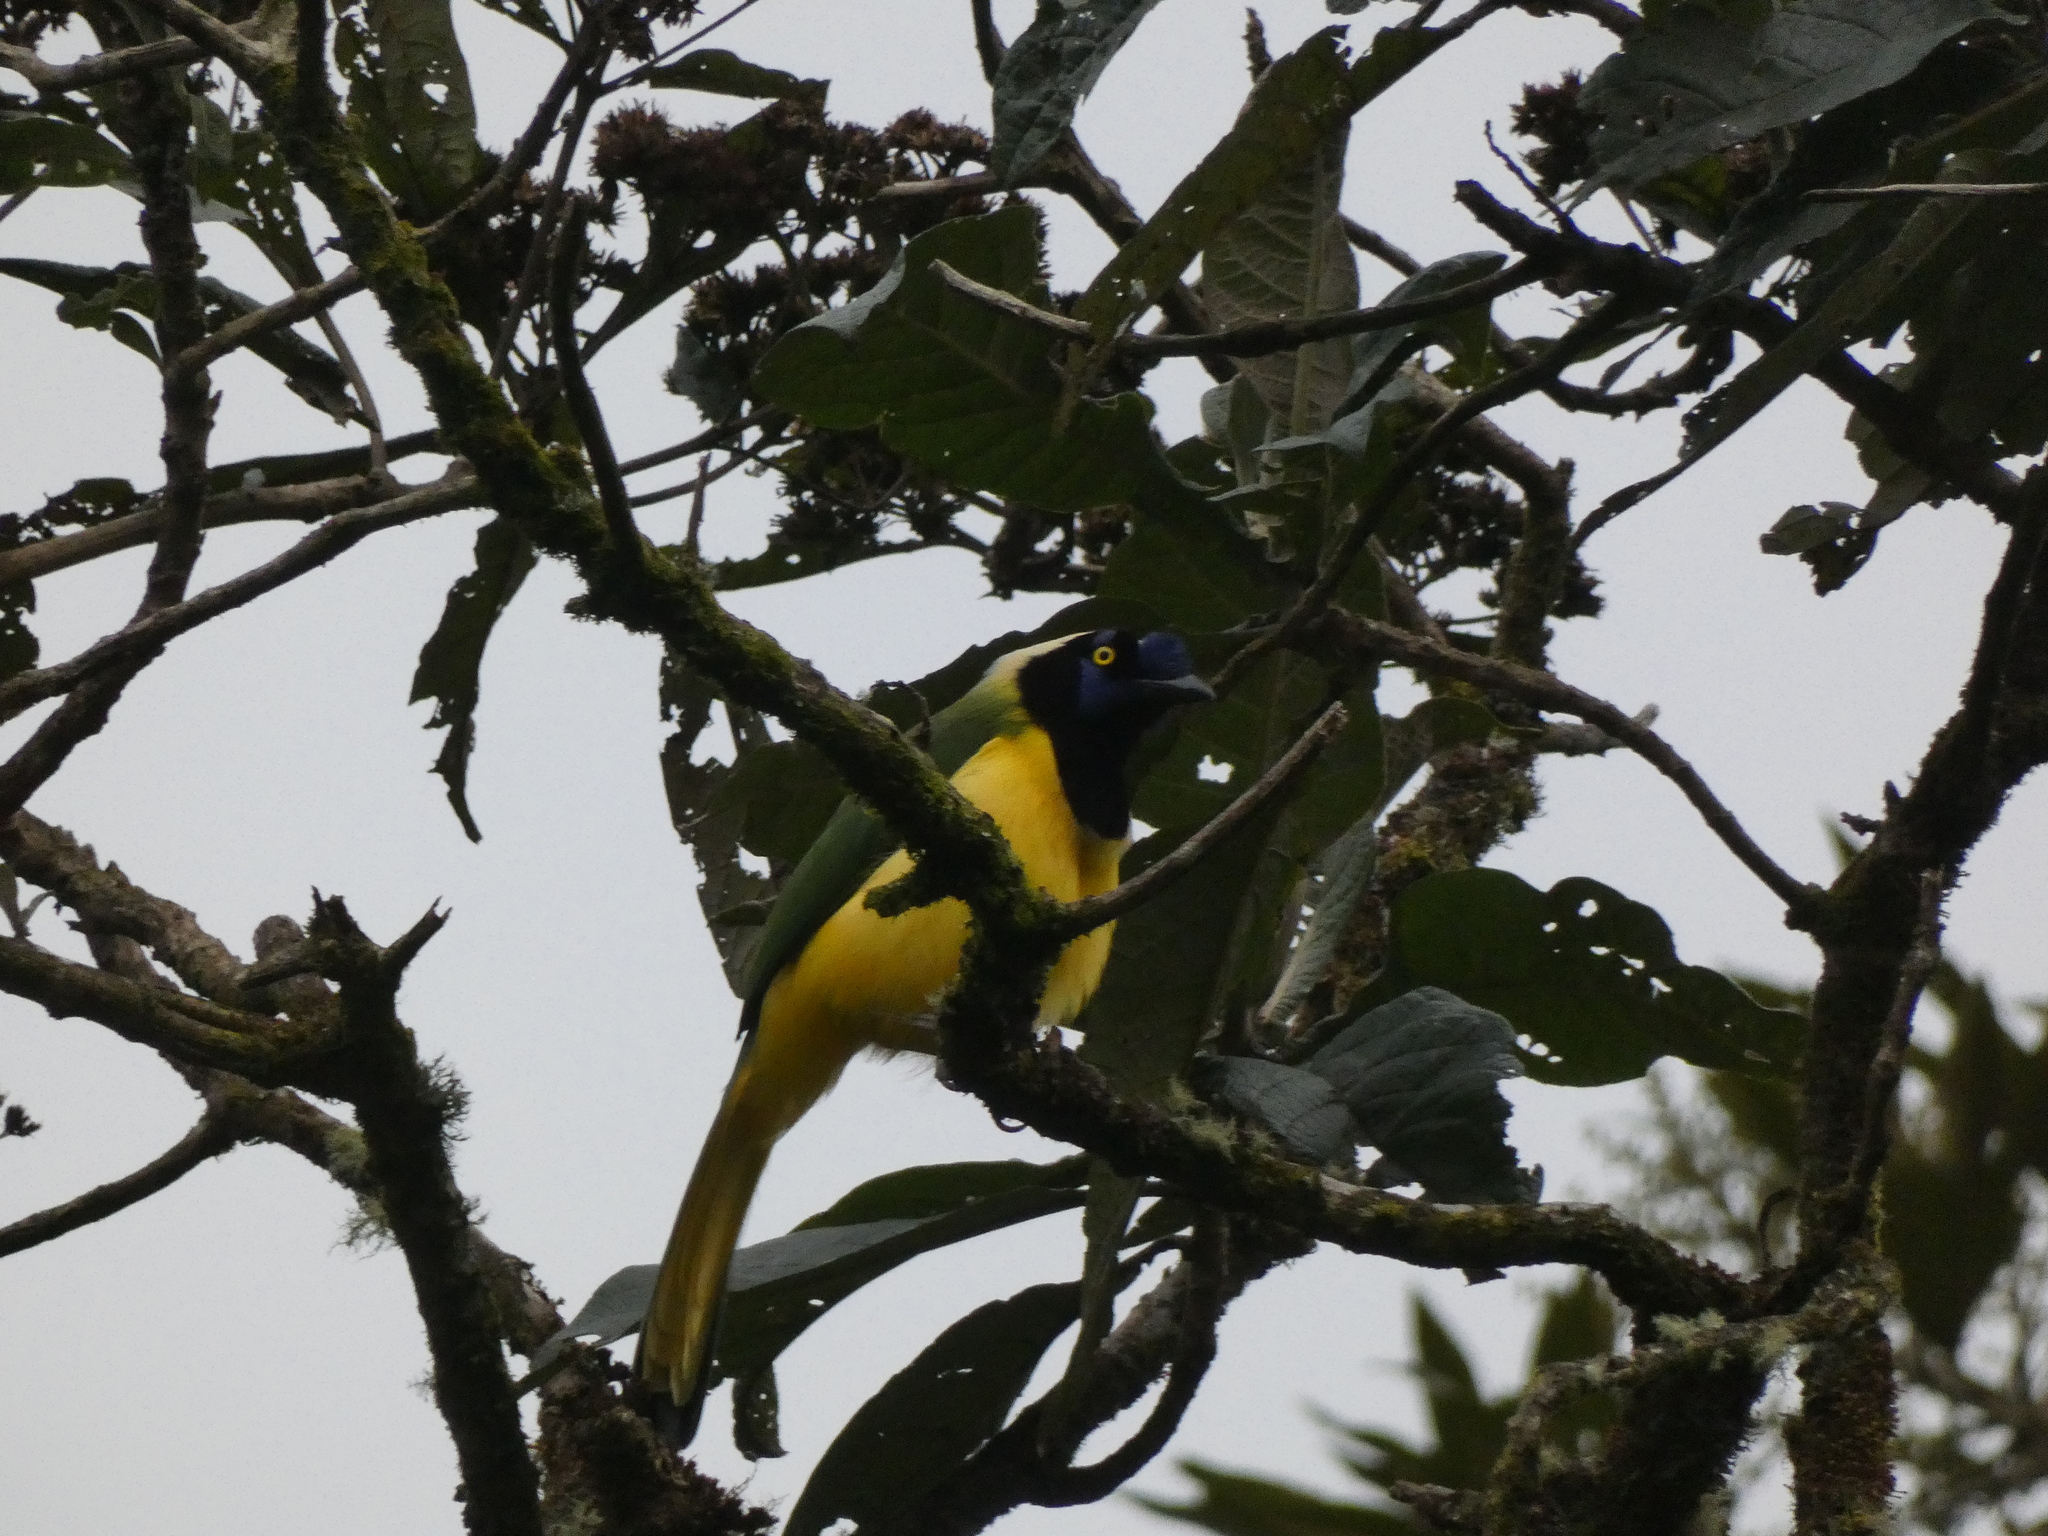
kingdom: Animalia
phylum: Chordata
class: Aves
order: Passeriformes
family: Corvidae
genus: Cyanocorax
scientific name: Cyanocorax yncas
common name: Green jay
